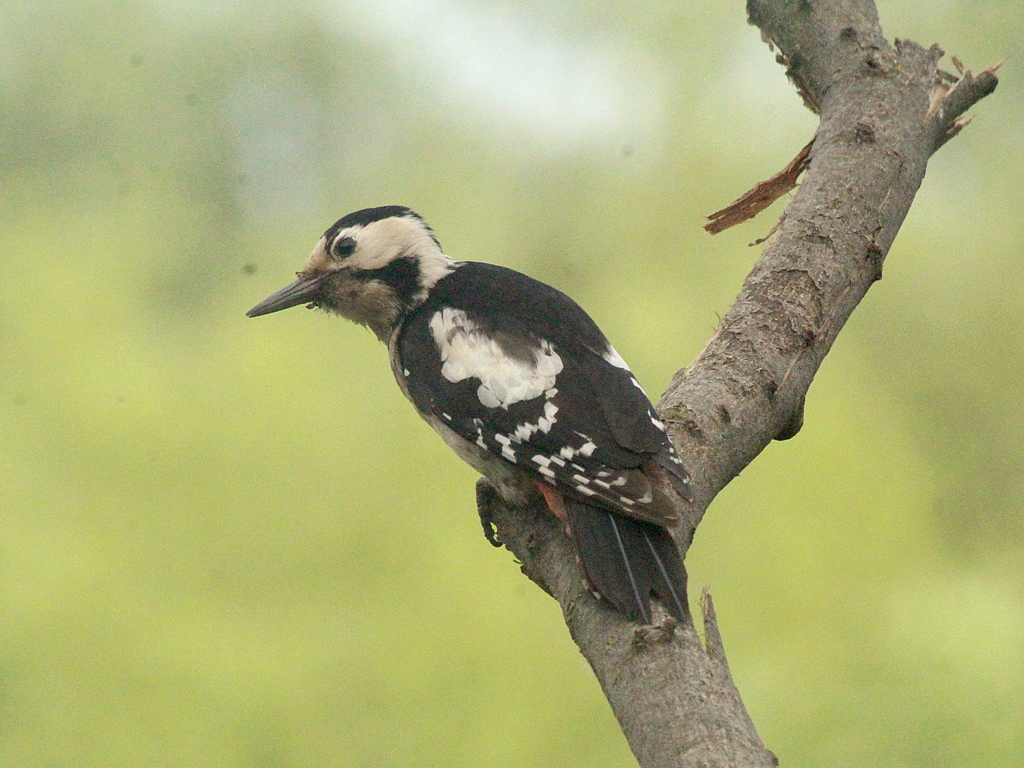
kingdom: Animalia
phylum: Chordata
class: Aves
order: Piciformes
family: Picidae
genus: Dendrocopos
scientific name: Dendrocopos syriacus
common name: Syrian woodpecker
